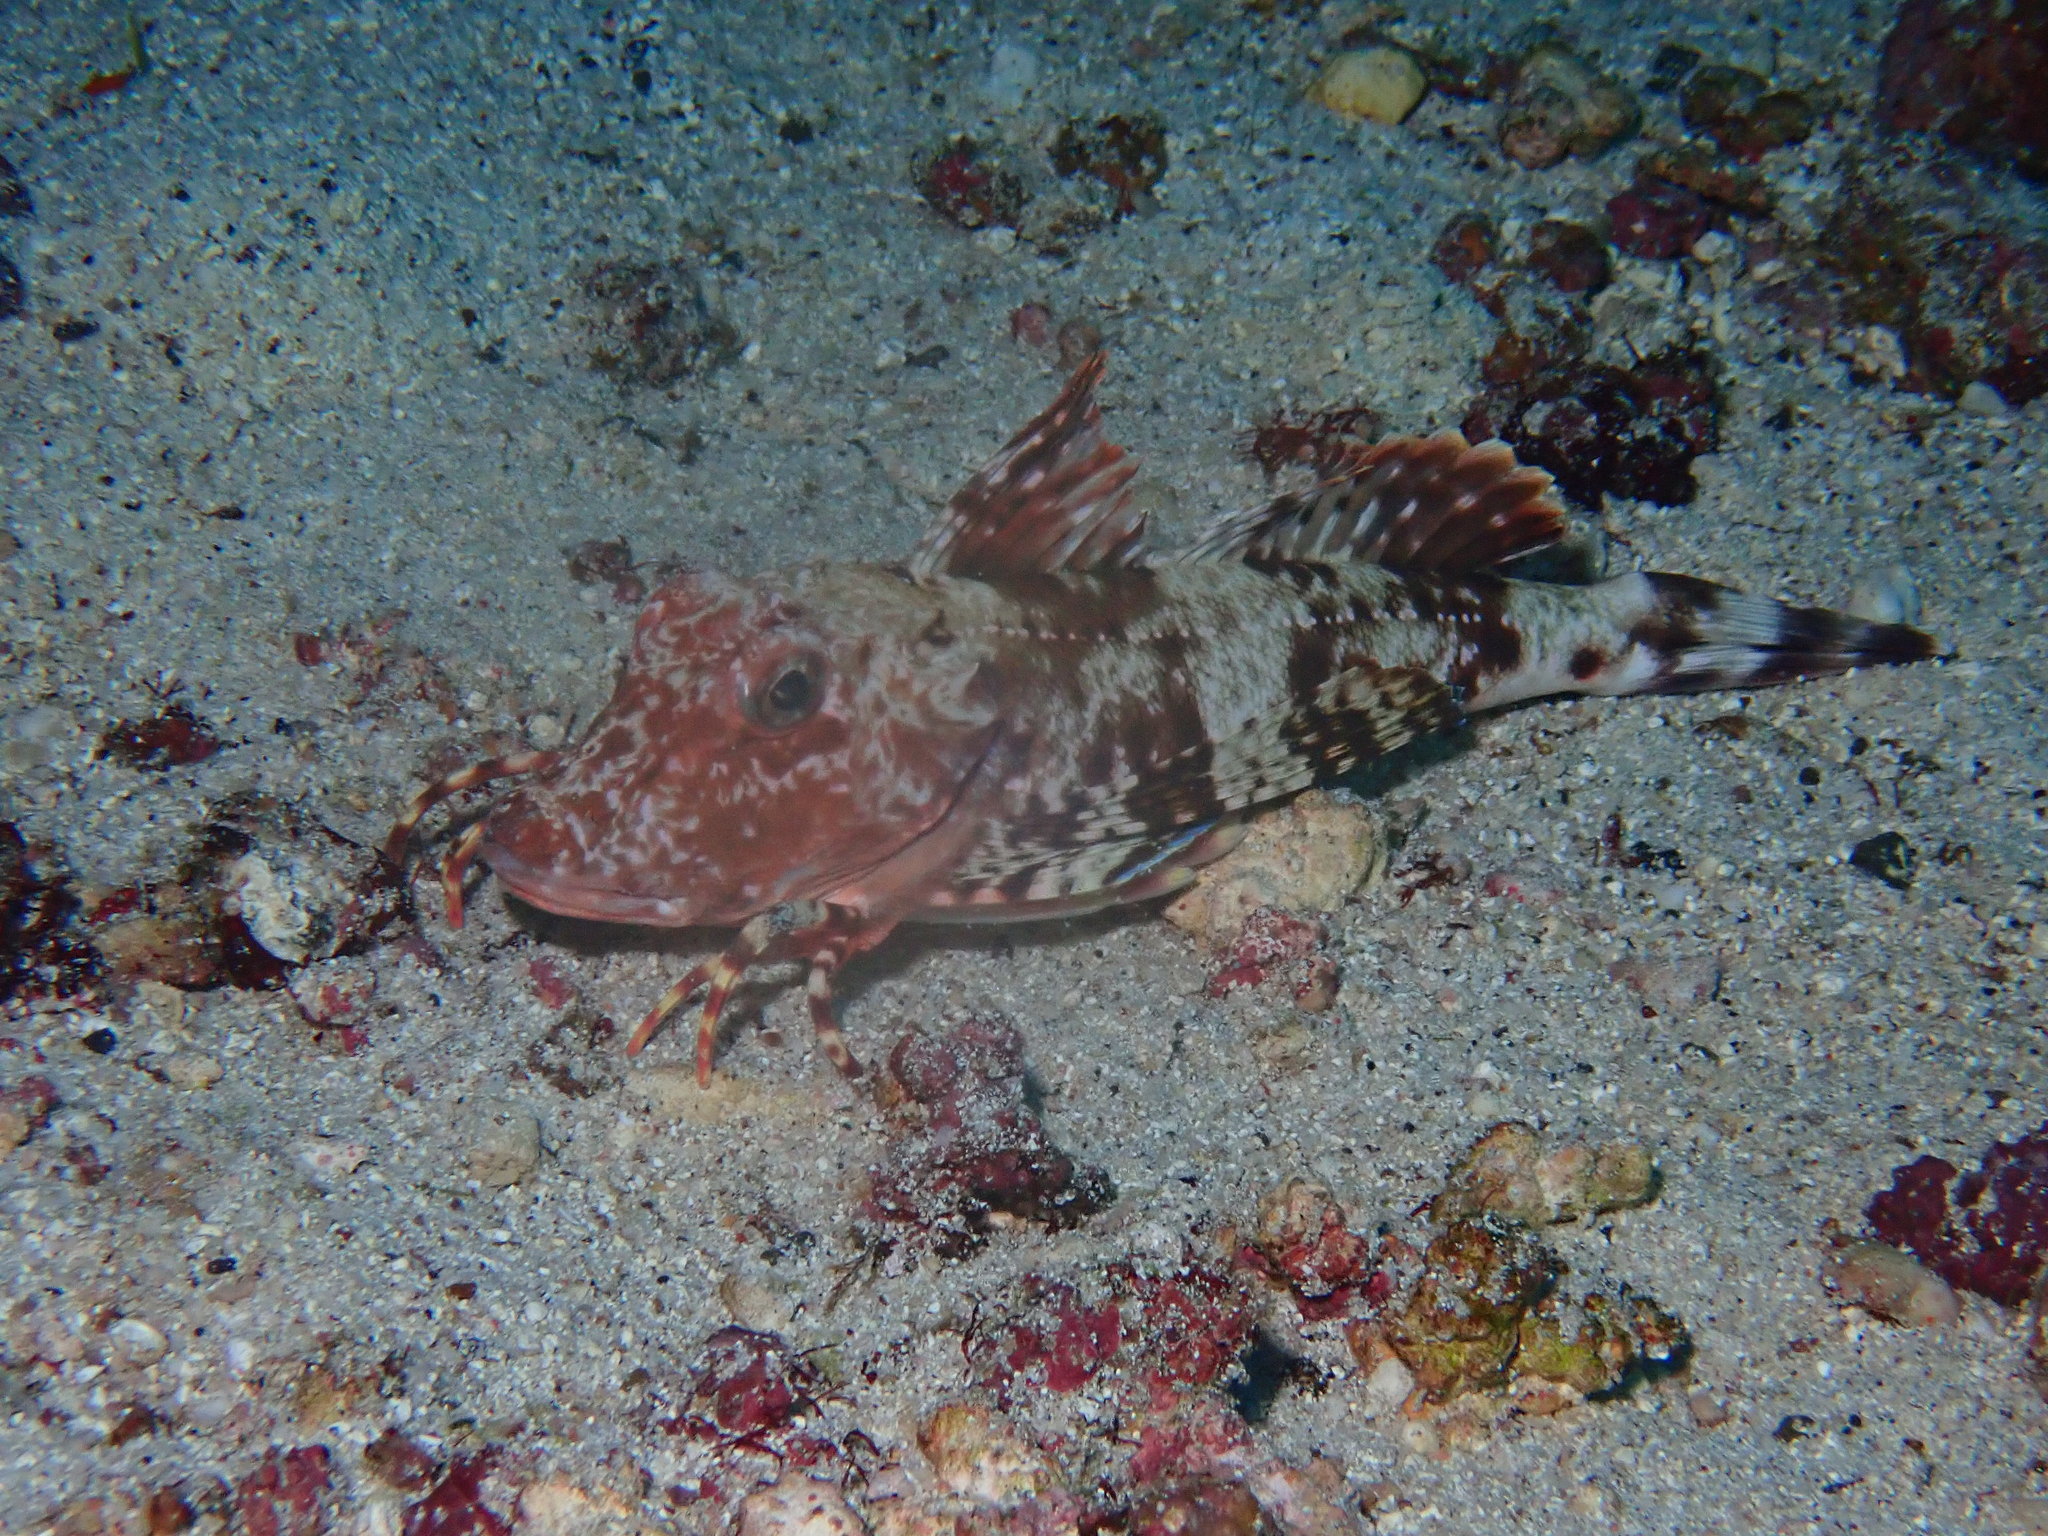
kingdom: Animalia
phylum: Chordata
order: Scorpaeniformes
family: Triglidae
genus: Prionotus
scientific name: Prionotus miles
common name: Galapagos gurnard
